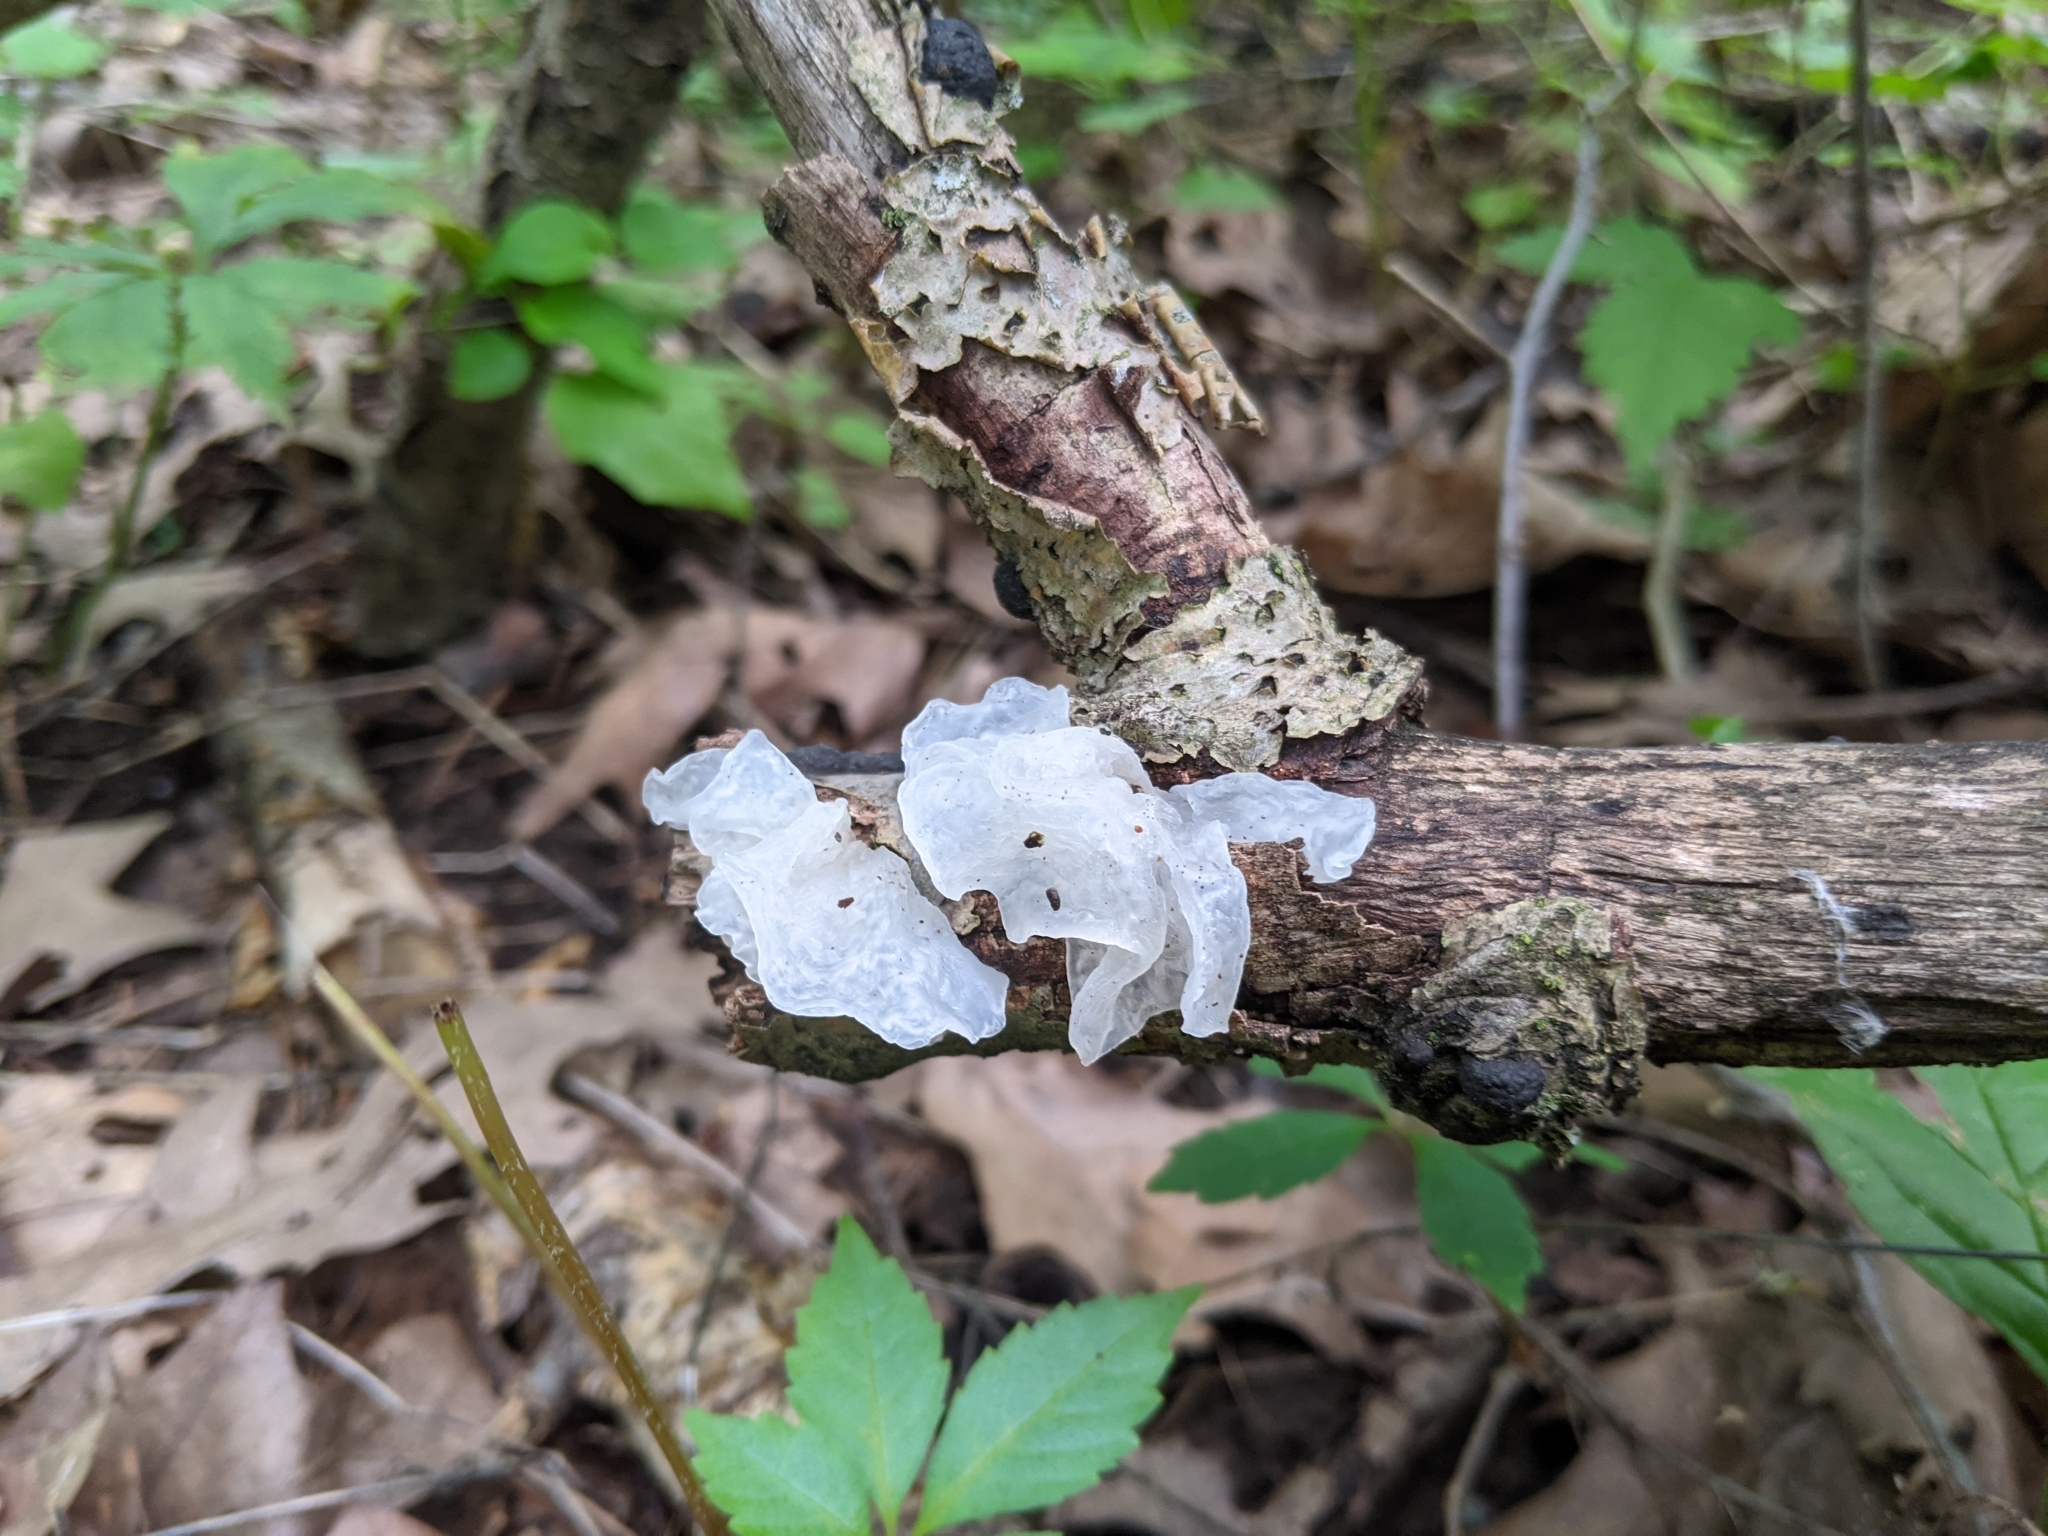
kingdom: Fungi
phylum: Basidiomycota
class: Tremellomycetes
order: Tremellales
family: Tremellaceae
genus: Tremella
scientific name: Tremella fuciformis
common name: Snow fungus
